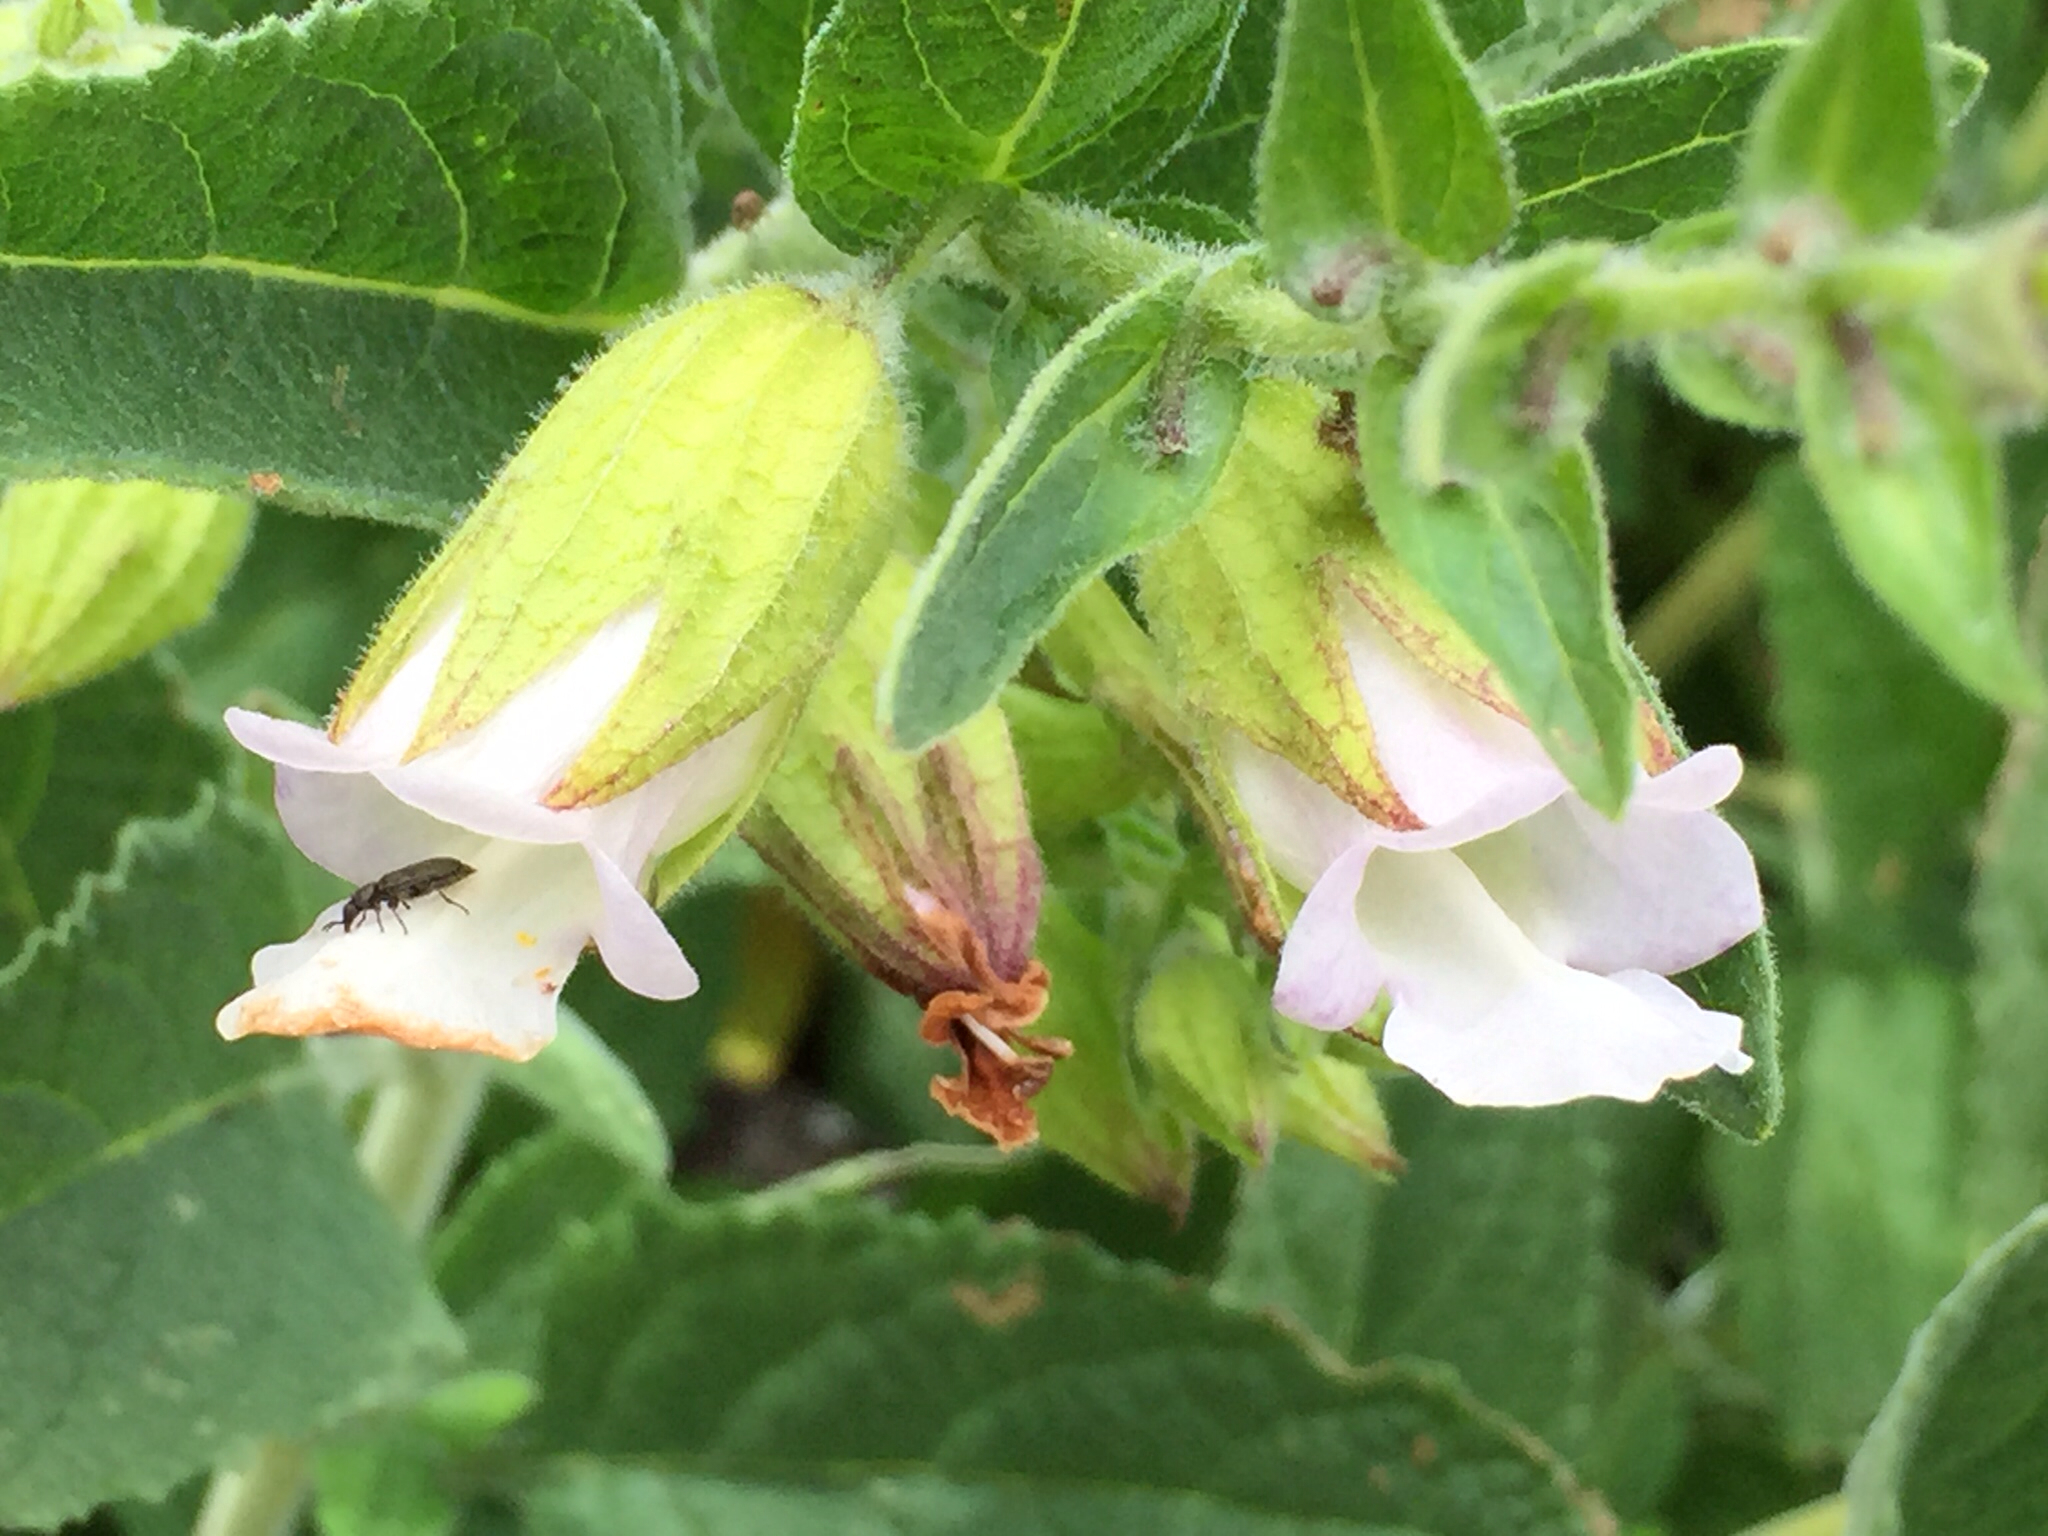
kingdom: Plantae
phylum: Tracheophyta
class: Magnoliopsida
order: Lamiales
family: Lamiaceae
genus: Lepechinia
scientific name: Lepechinia calycina
